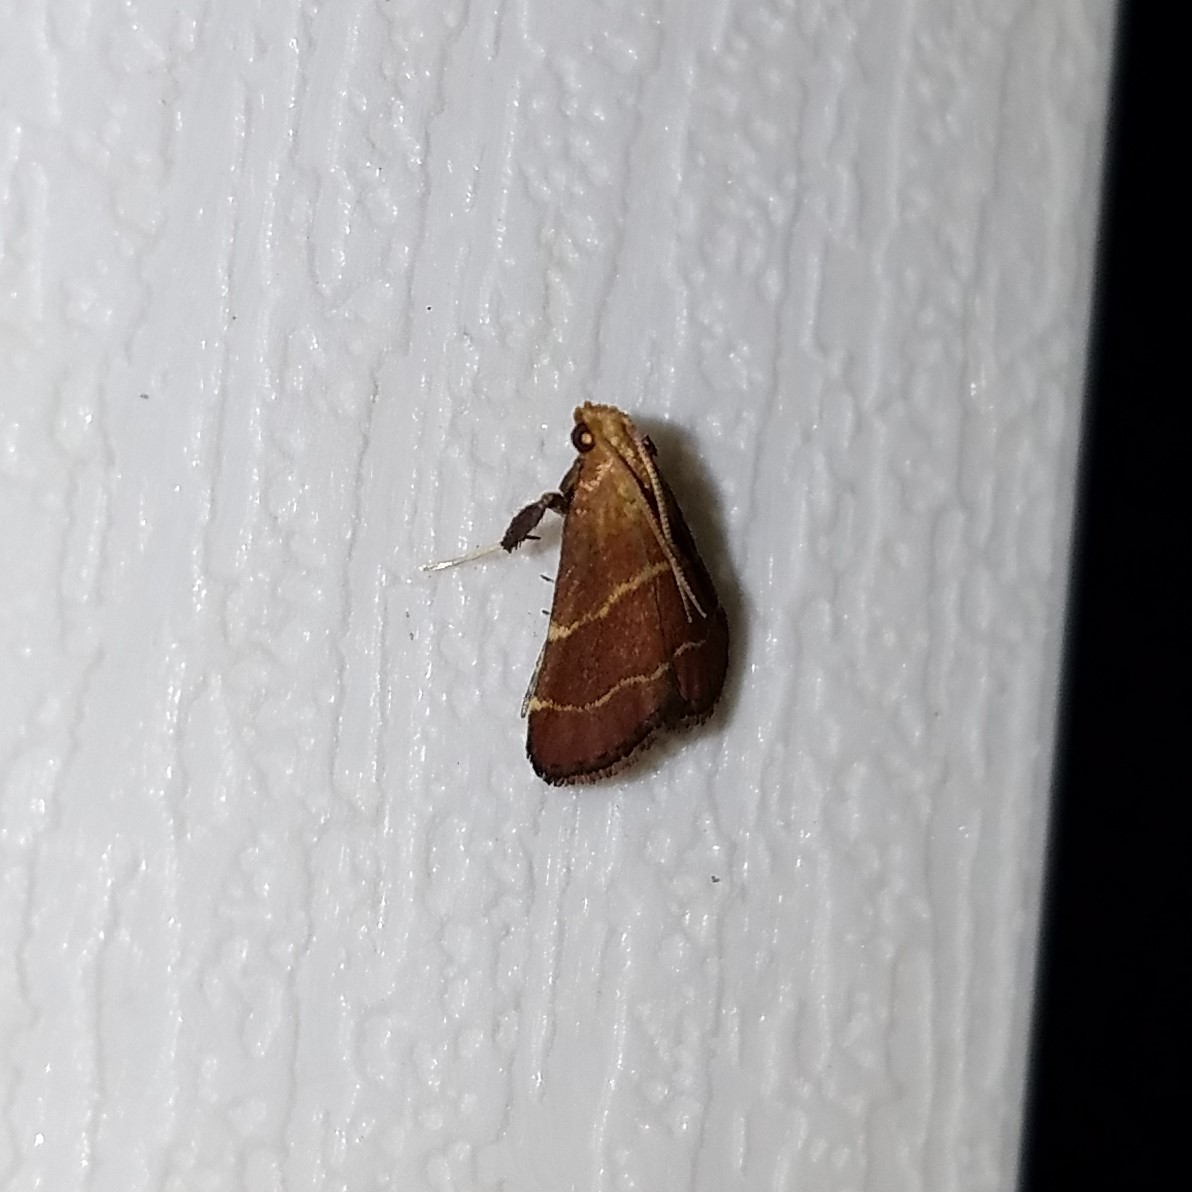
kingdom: Animalia
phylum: Arthropoda
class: Insecta
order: Lepidoptera
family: Pyralidae
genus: Arta
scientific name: Arta statalis
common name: Posturing arta moth
